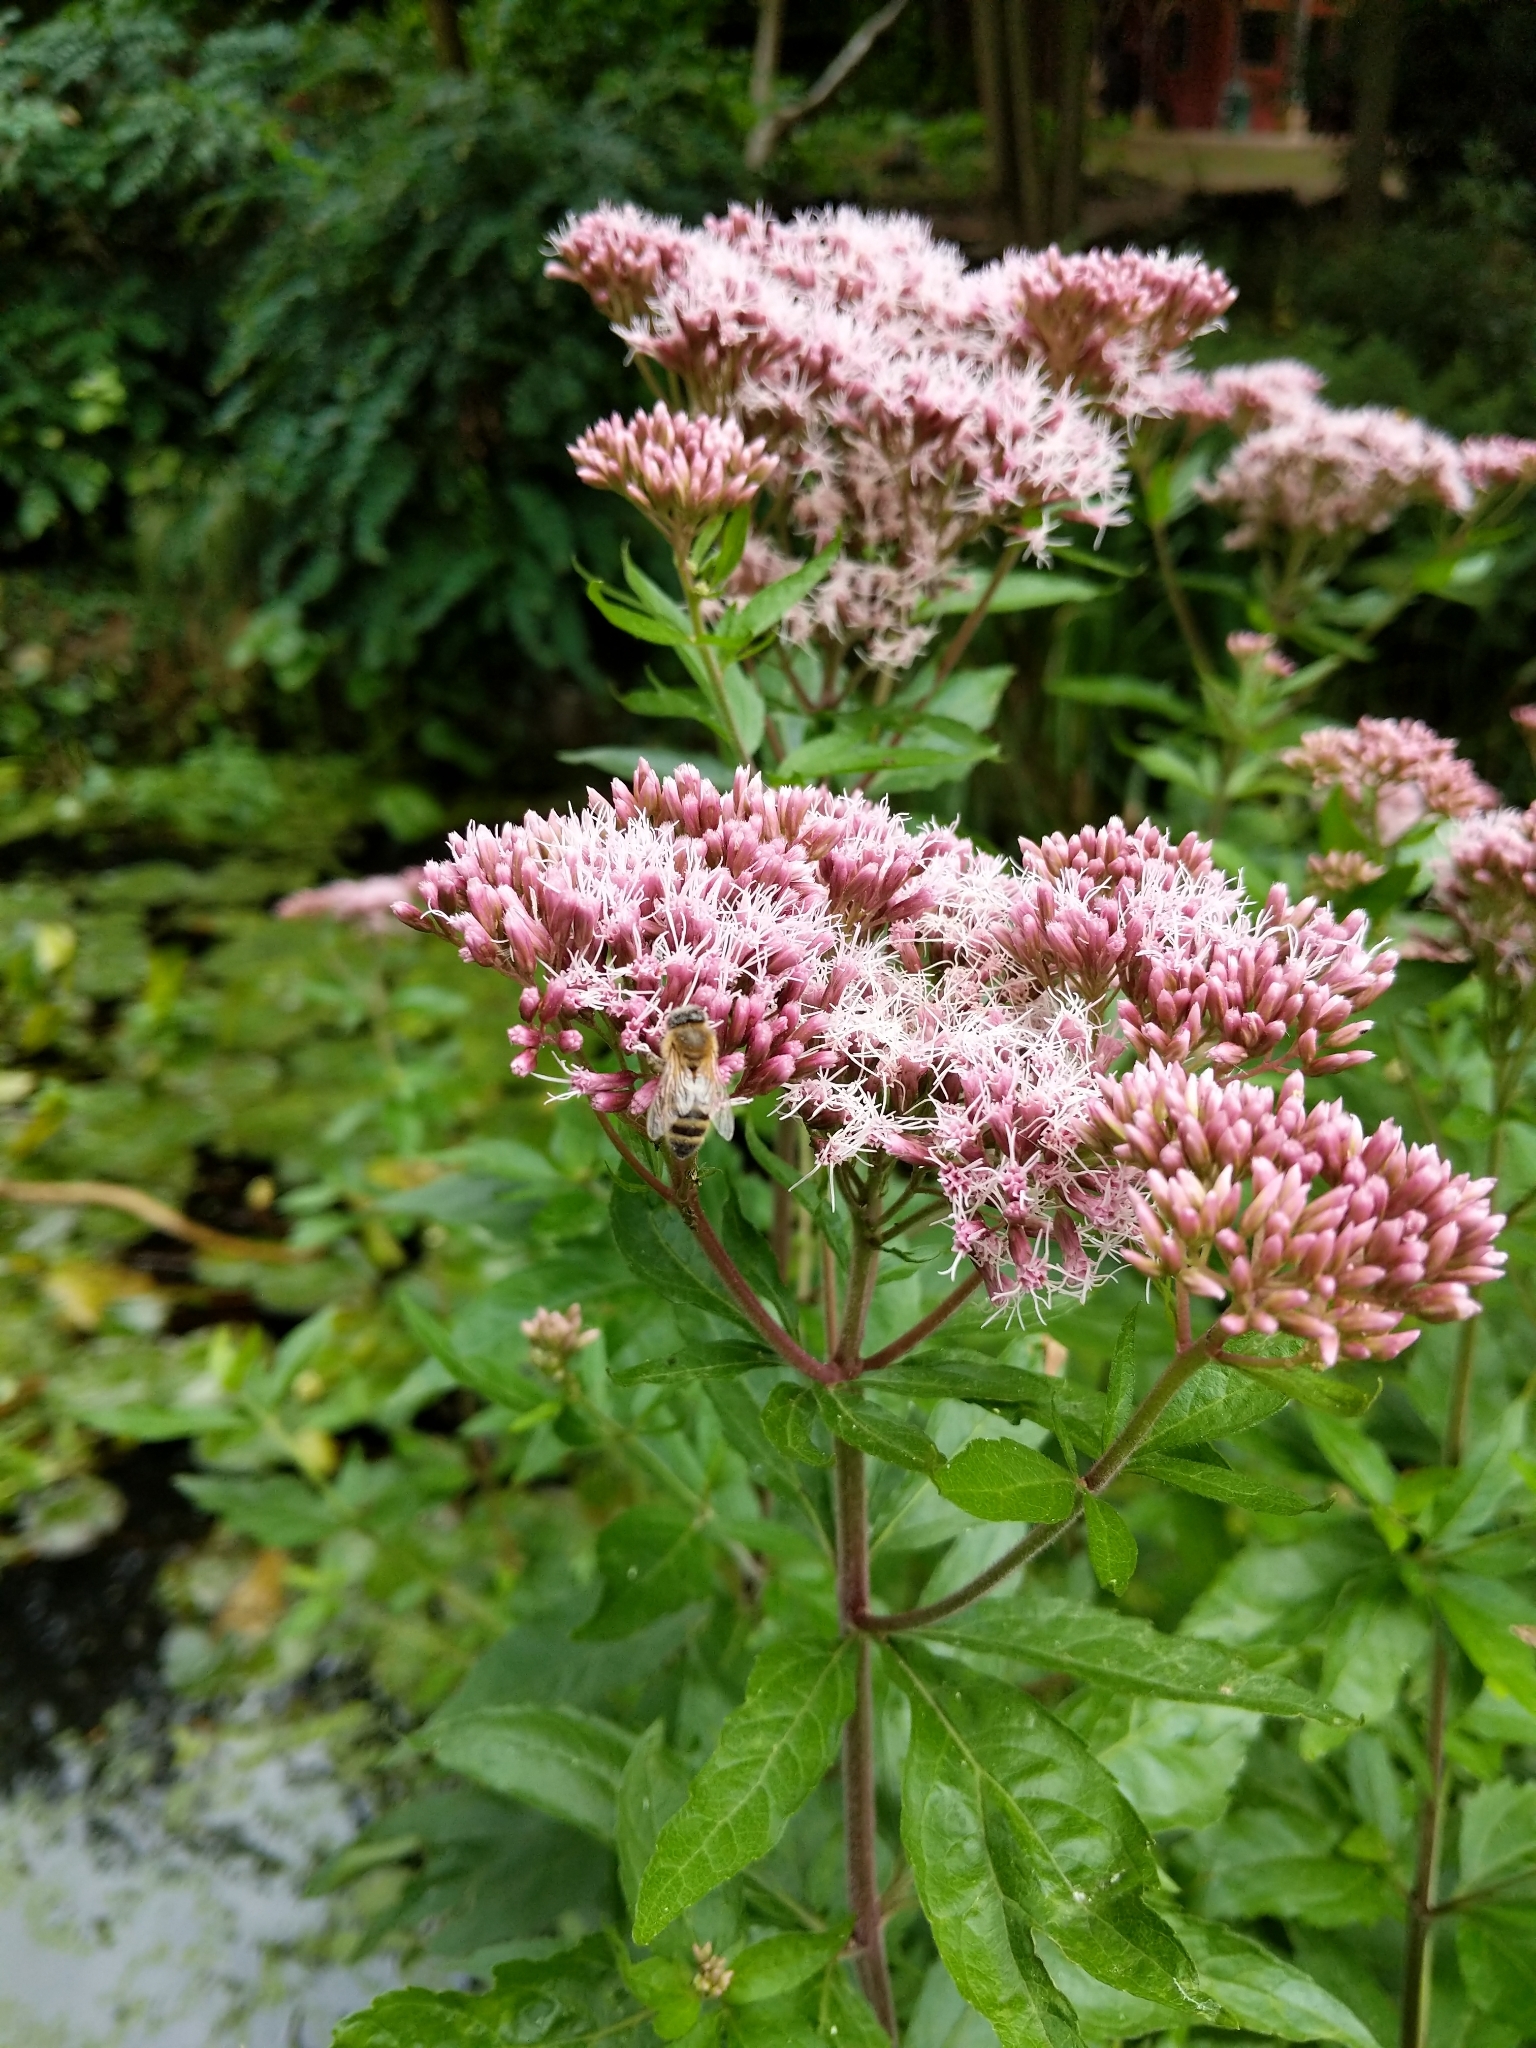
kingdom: Plantae
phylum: Tracheophyta
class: Magnoliopsida
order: Asterales
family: Asteraceae
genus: Eupatorium
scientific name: Eupatorium cannabinum
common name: Hemp-agrimony
